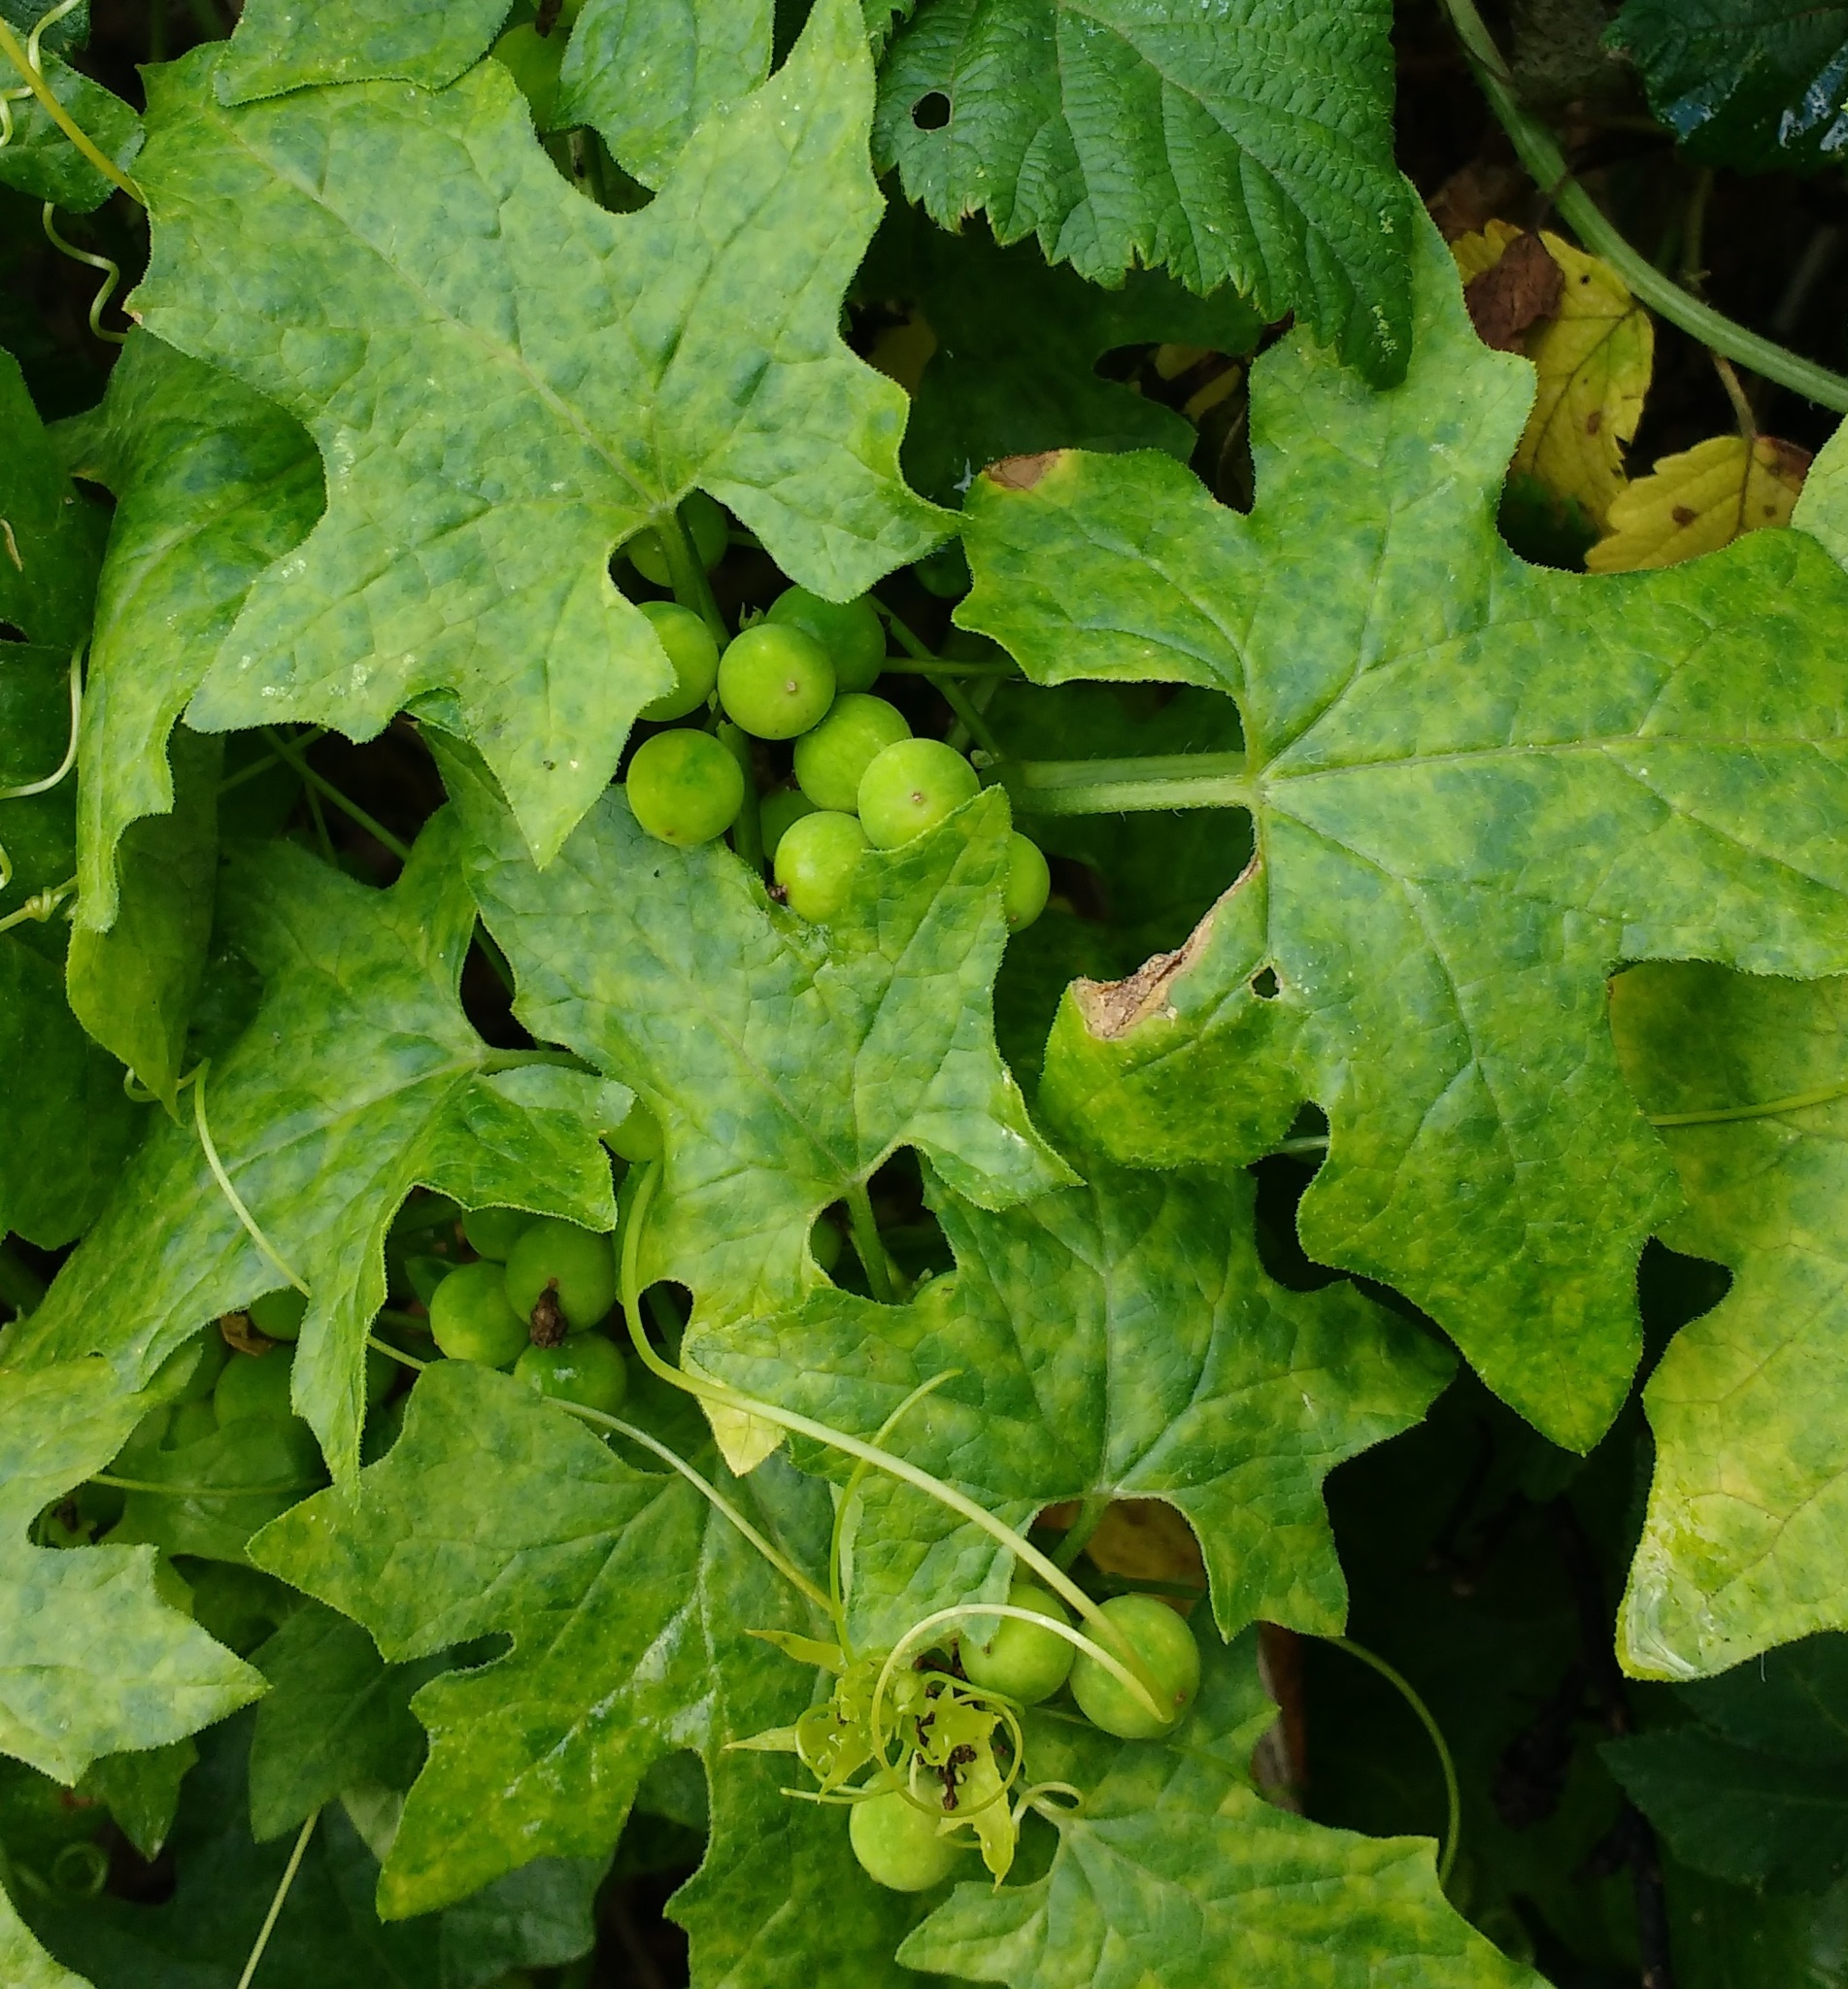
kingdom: Plantae
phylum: Tracheophyta
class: Magnoliopsida
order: Cucurbitales
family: Cucurbitaceae
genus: Bryonia
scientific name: Bryonia cretica
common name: Cretan bryony
